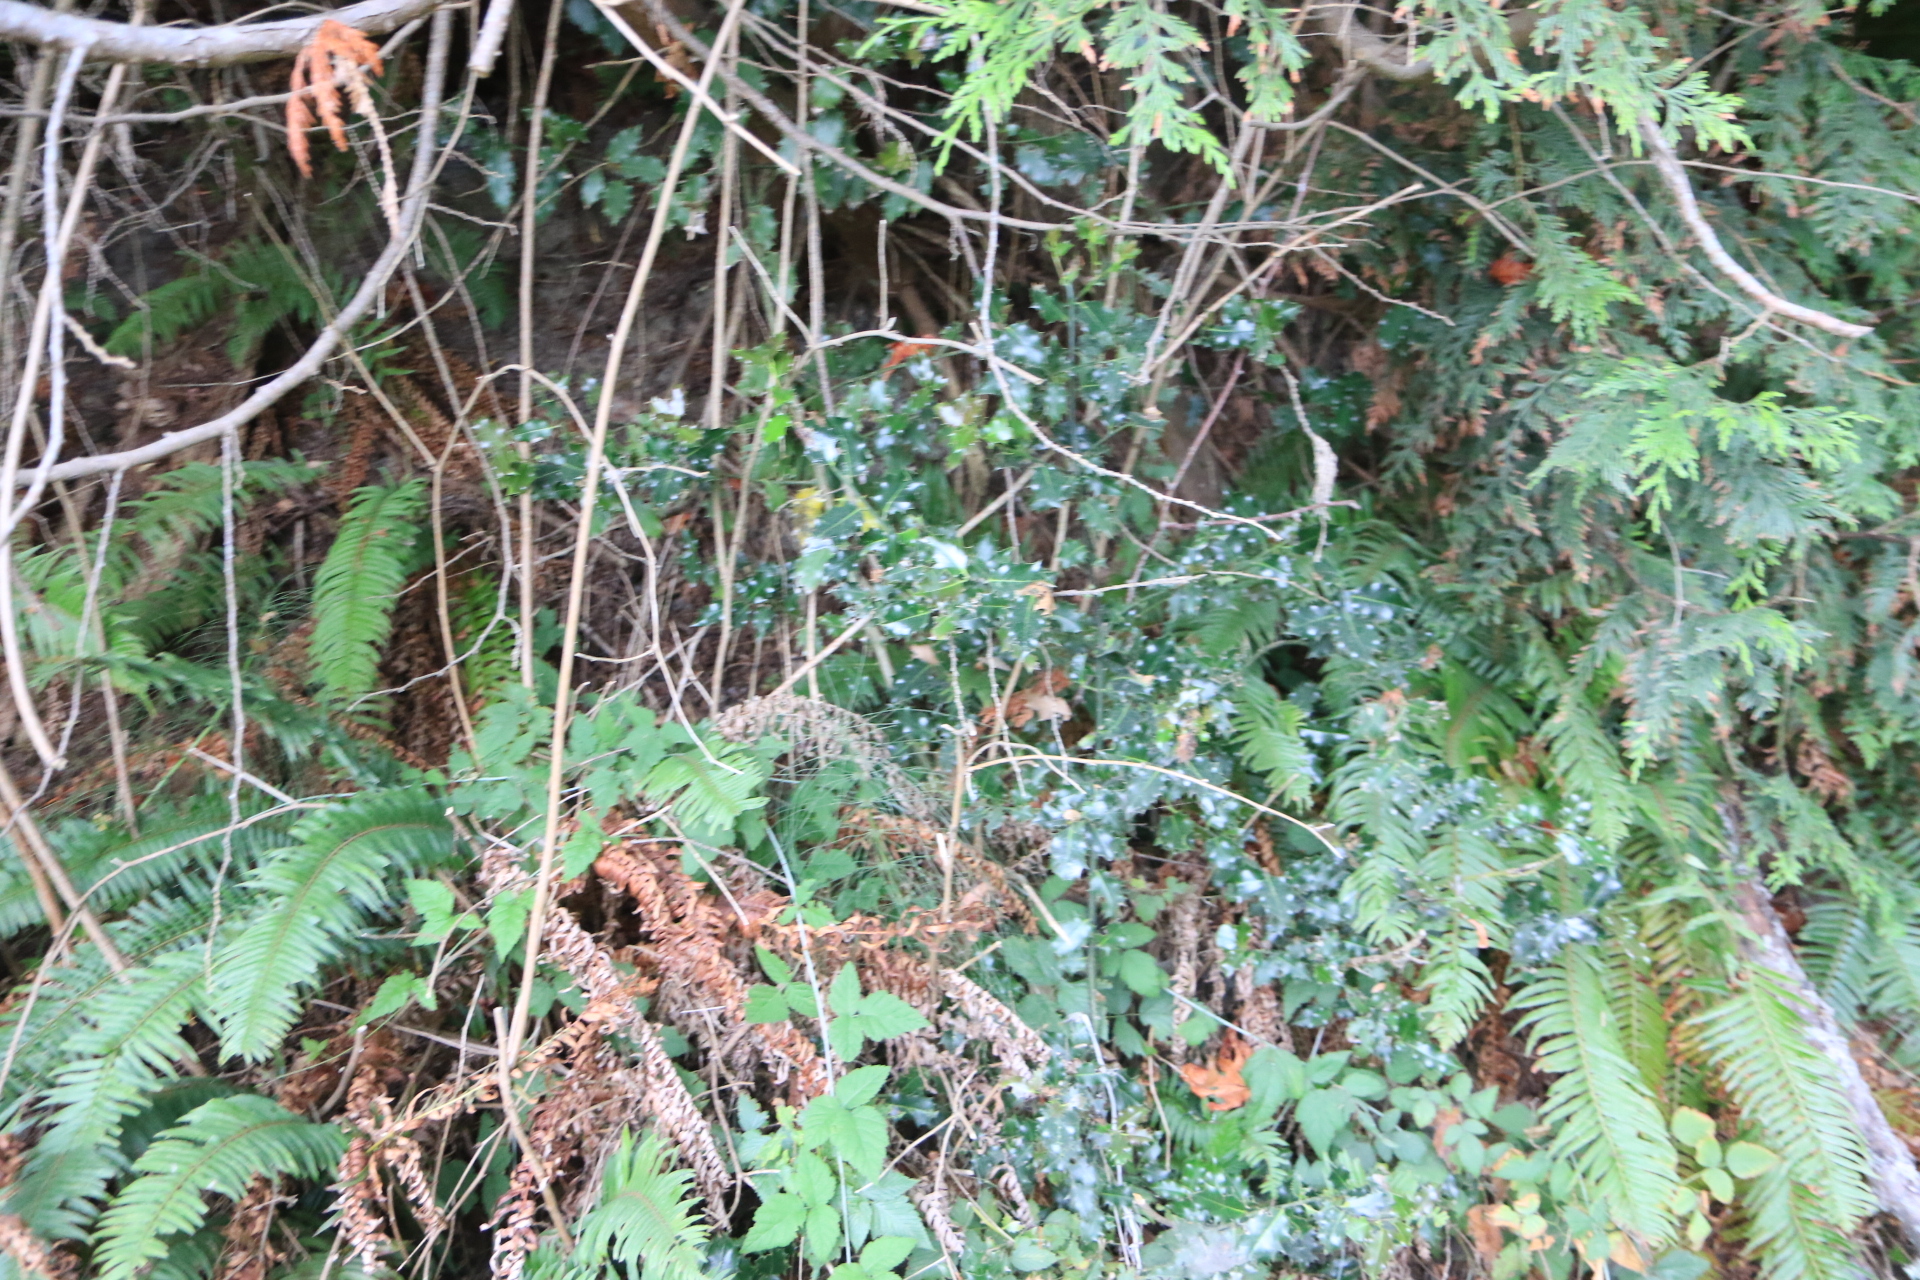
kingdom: Plantae
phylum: Tracheophyta
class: Magnoliopsida
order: Aquifoliales
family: Aquifoliaceae
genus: Ilex
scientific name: Ilex aquifolium
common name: English holly
